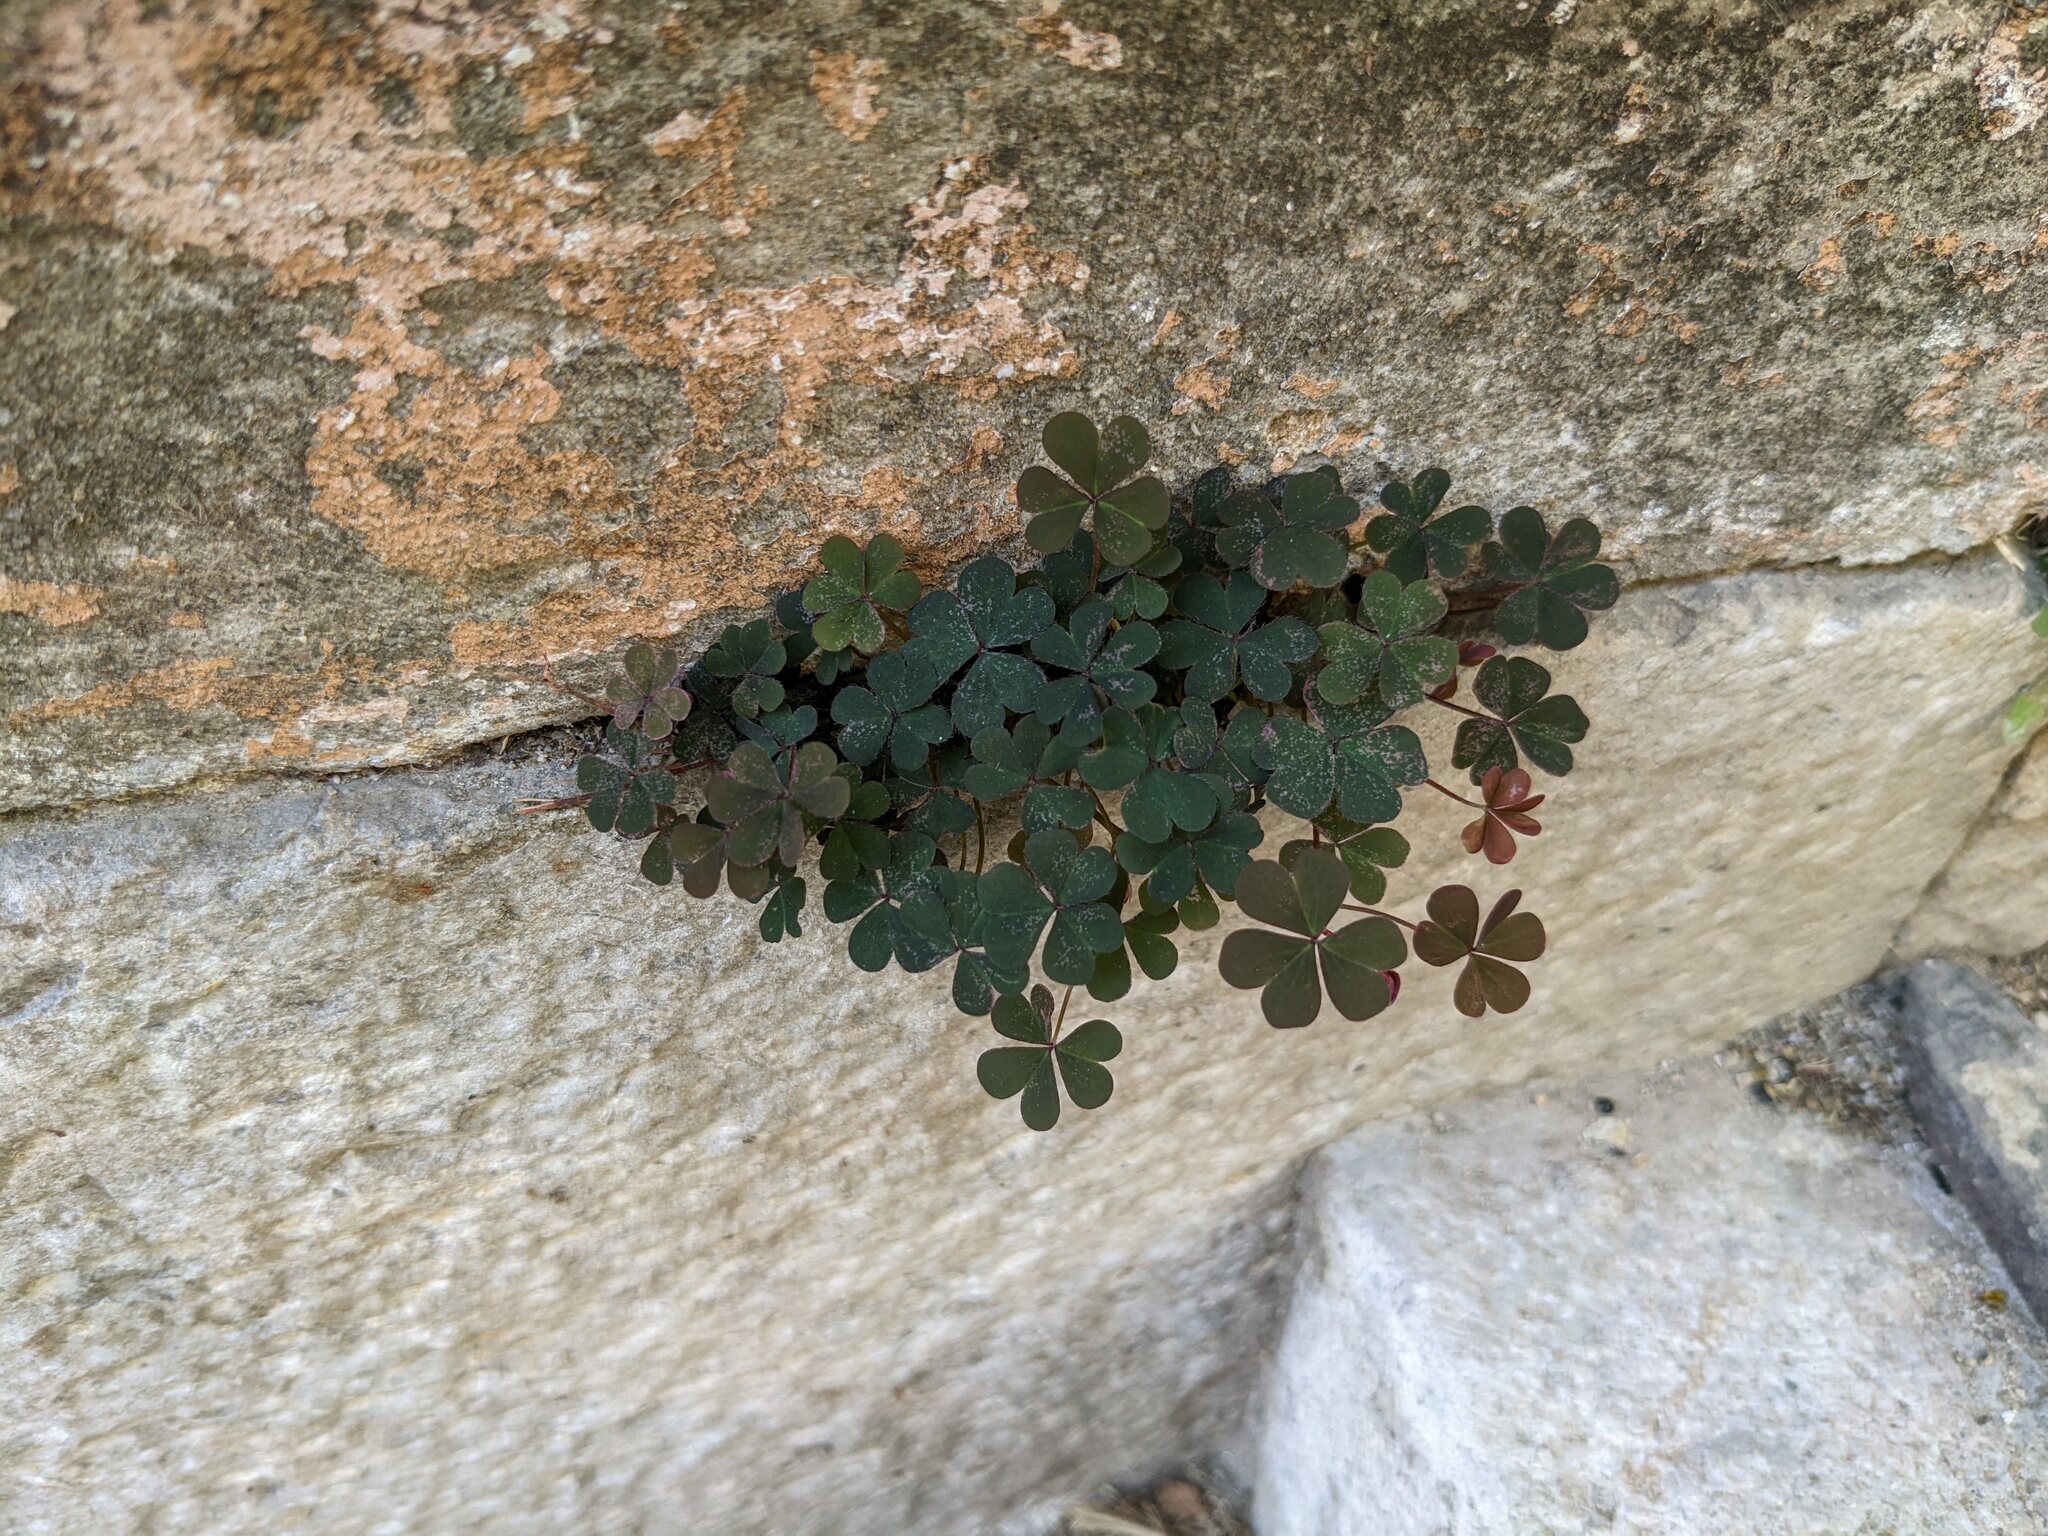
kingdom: Plantae
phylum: Tracheophyta
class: Magnoliopsida
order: Oxalidales
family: Oxalidaceae
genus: Oxalis
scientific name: Oxalis corniculata
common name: Procumbent yellow-sorrel
